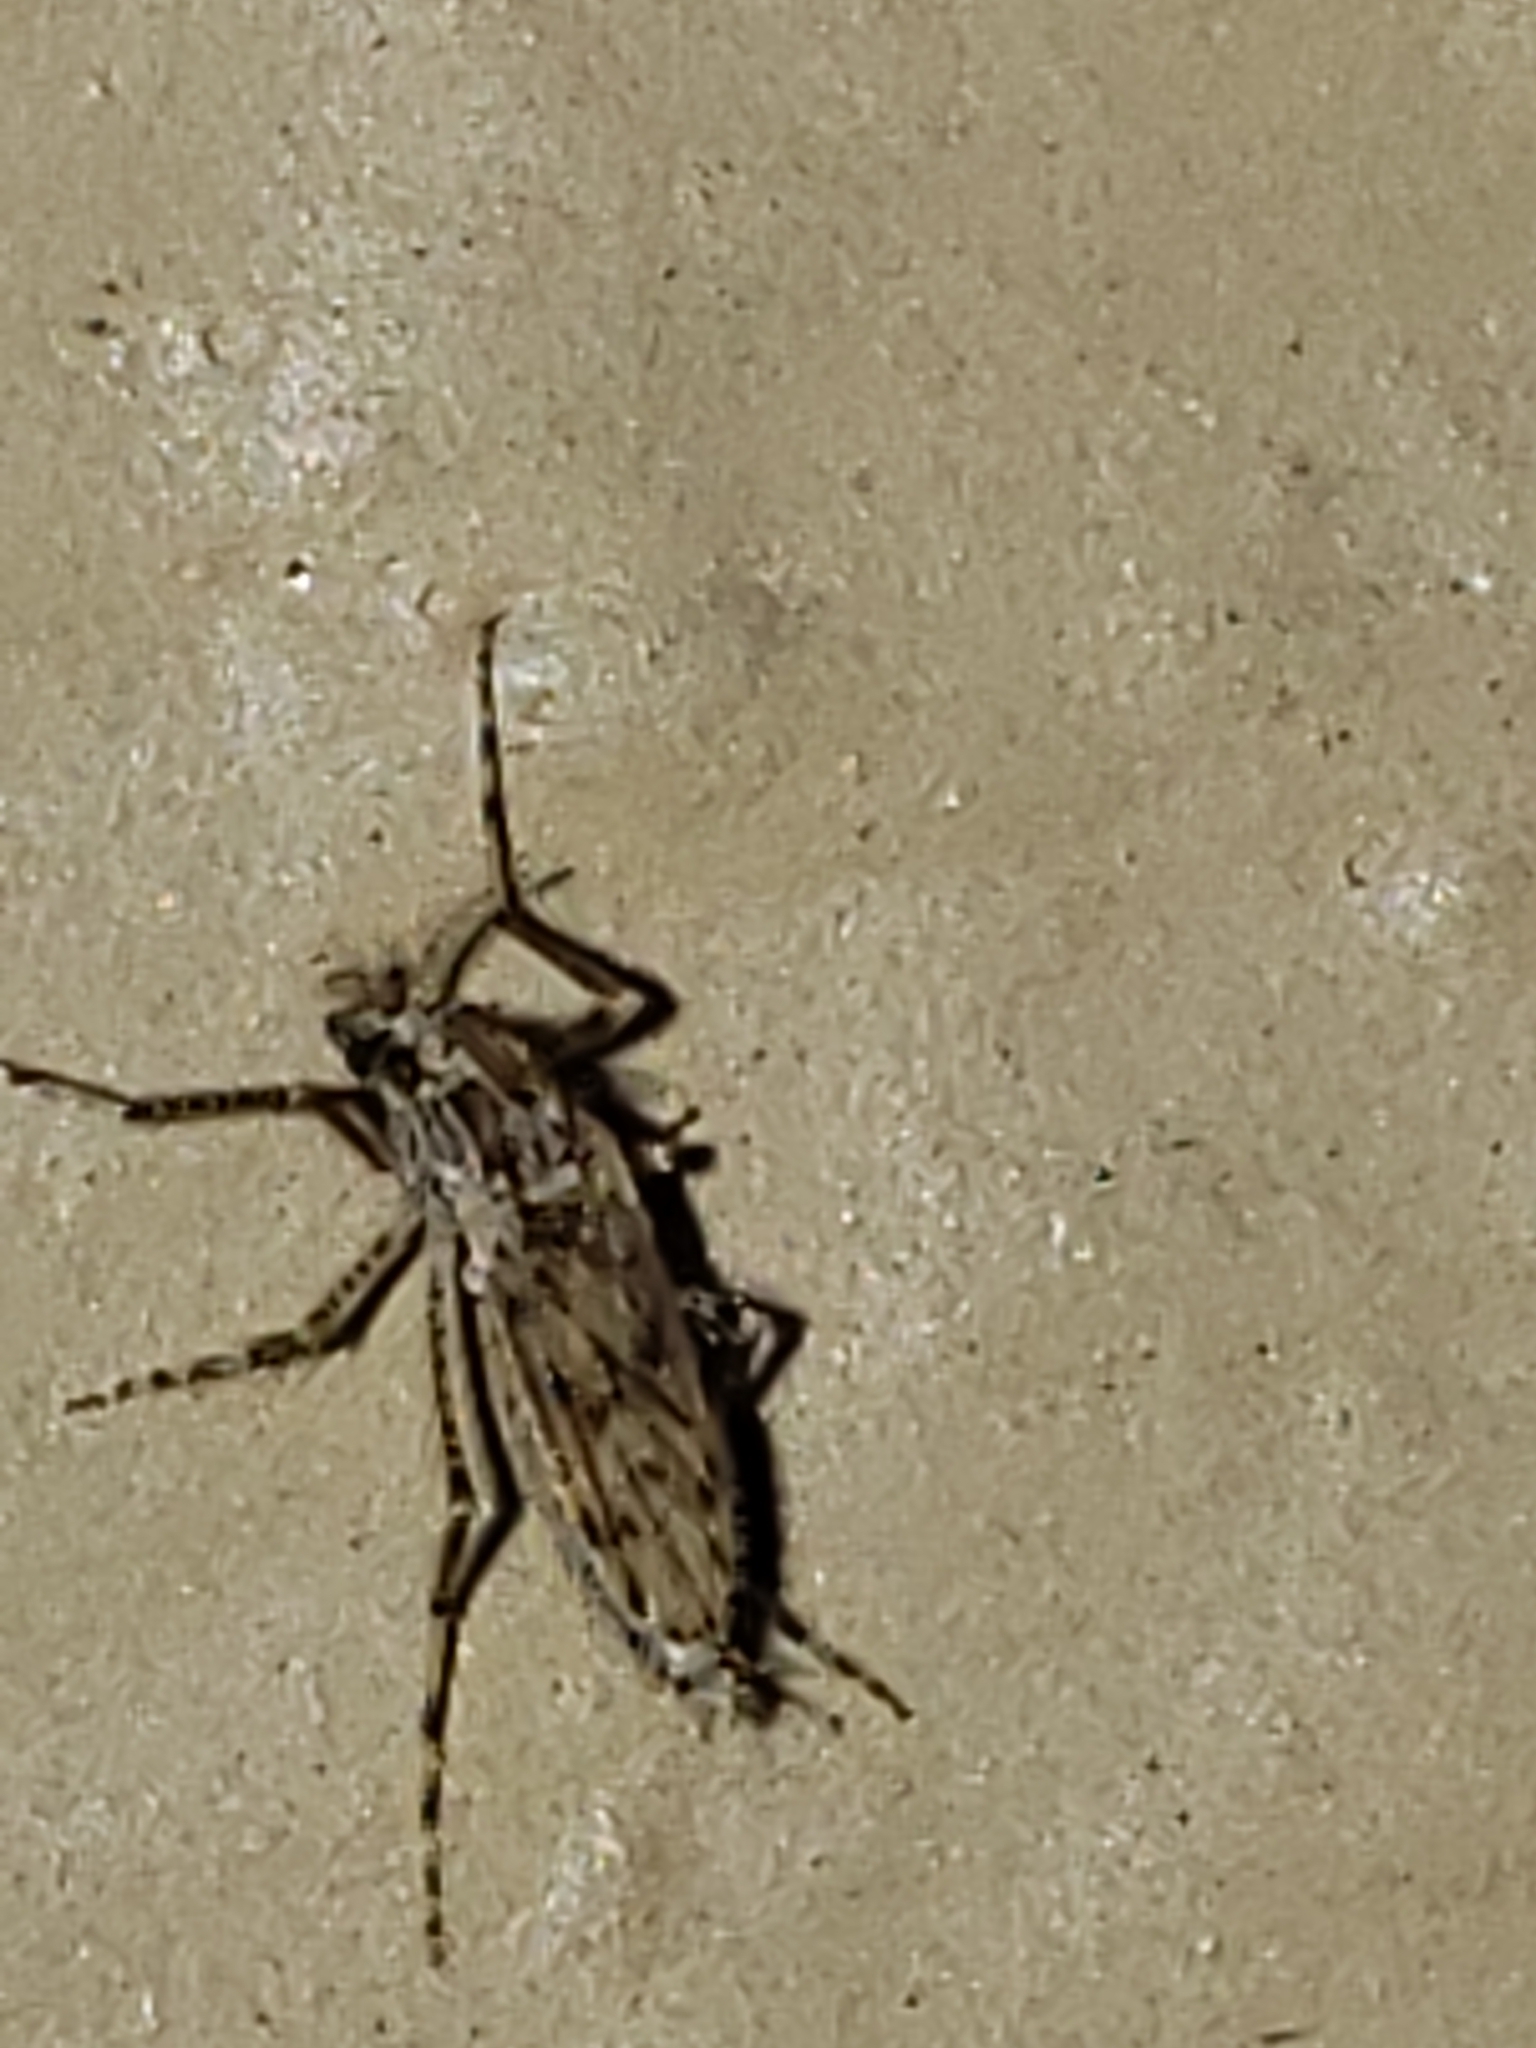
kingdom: Animalia
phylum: Arthropoda
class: Insecta
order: Diptera
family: Chaoboridae
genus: Chaoborus
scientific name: Chaoborus punctipennis
